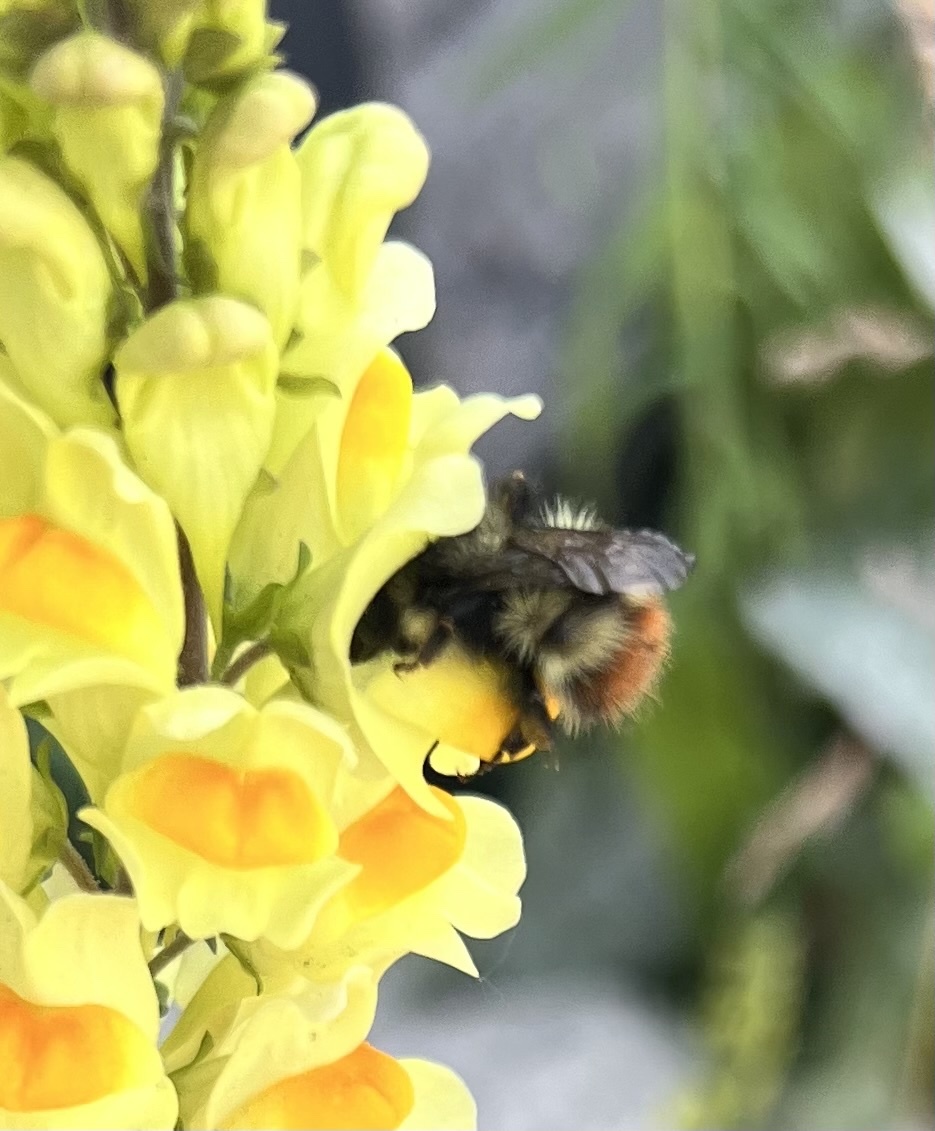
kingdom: Animalia
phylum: Arthropoda
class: Insecta
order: Hymenoptera
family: Apidae
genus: Bombus
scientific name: Bombus flavifrons
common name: Yellow head bumble bee
